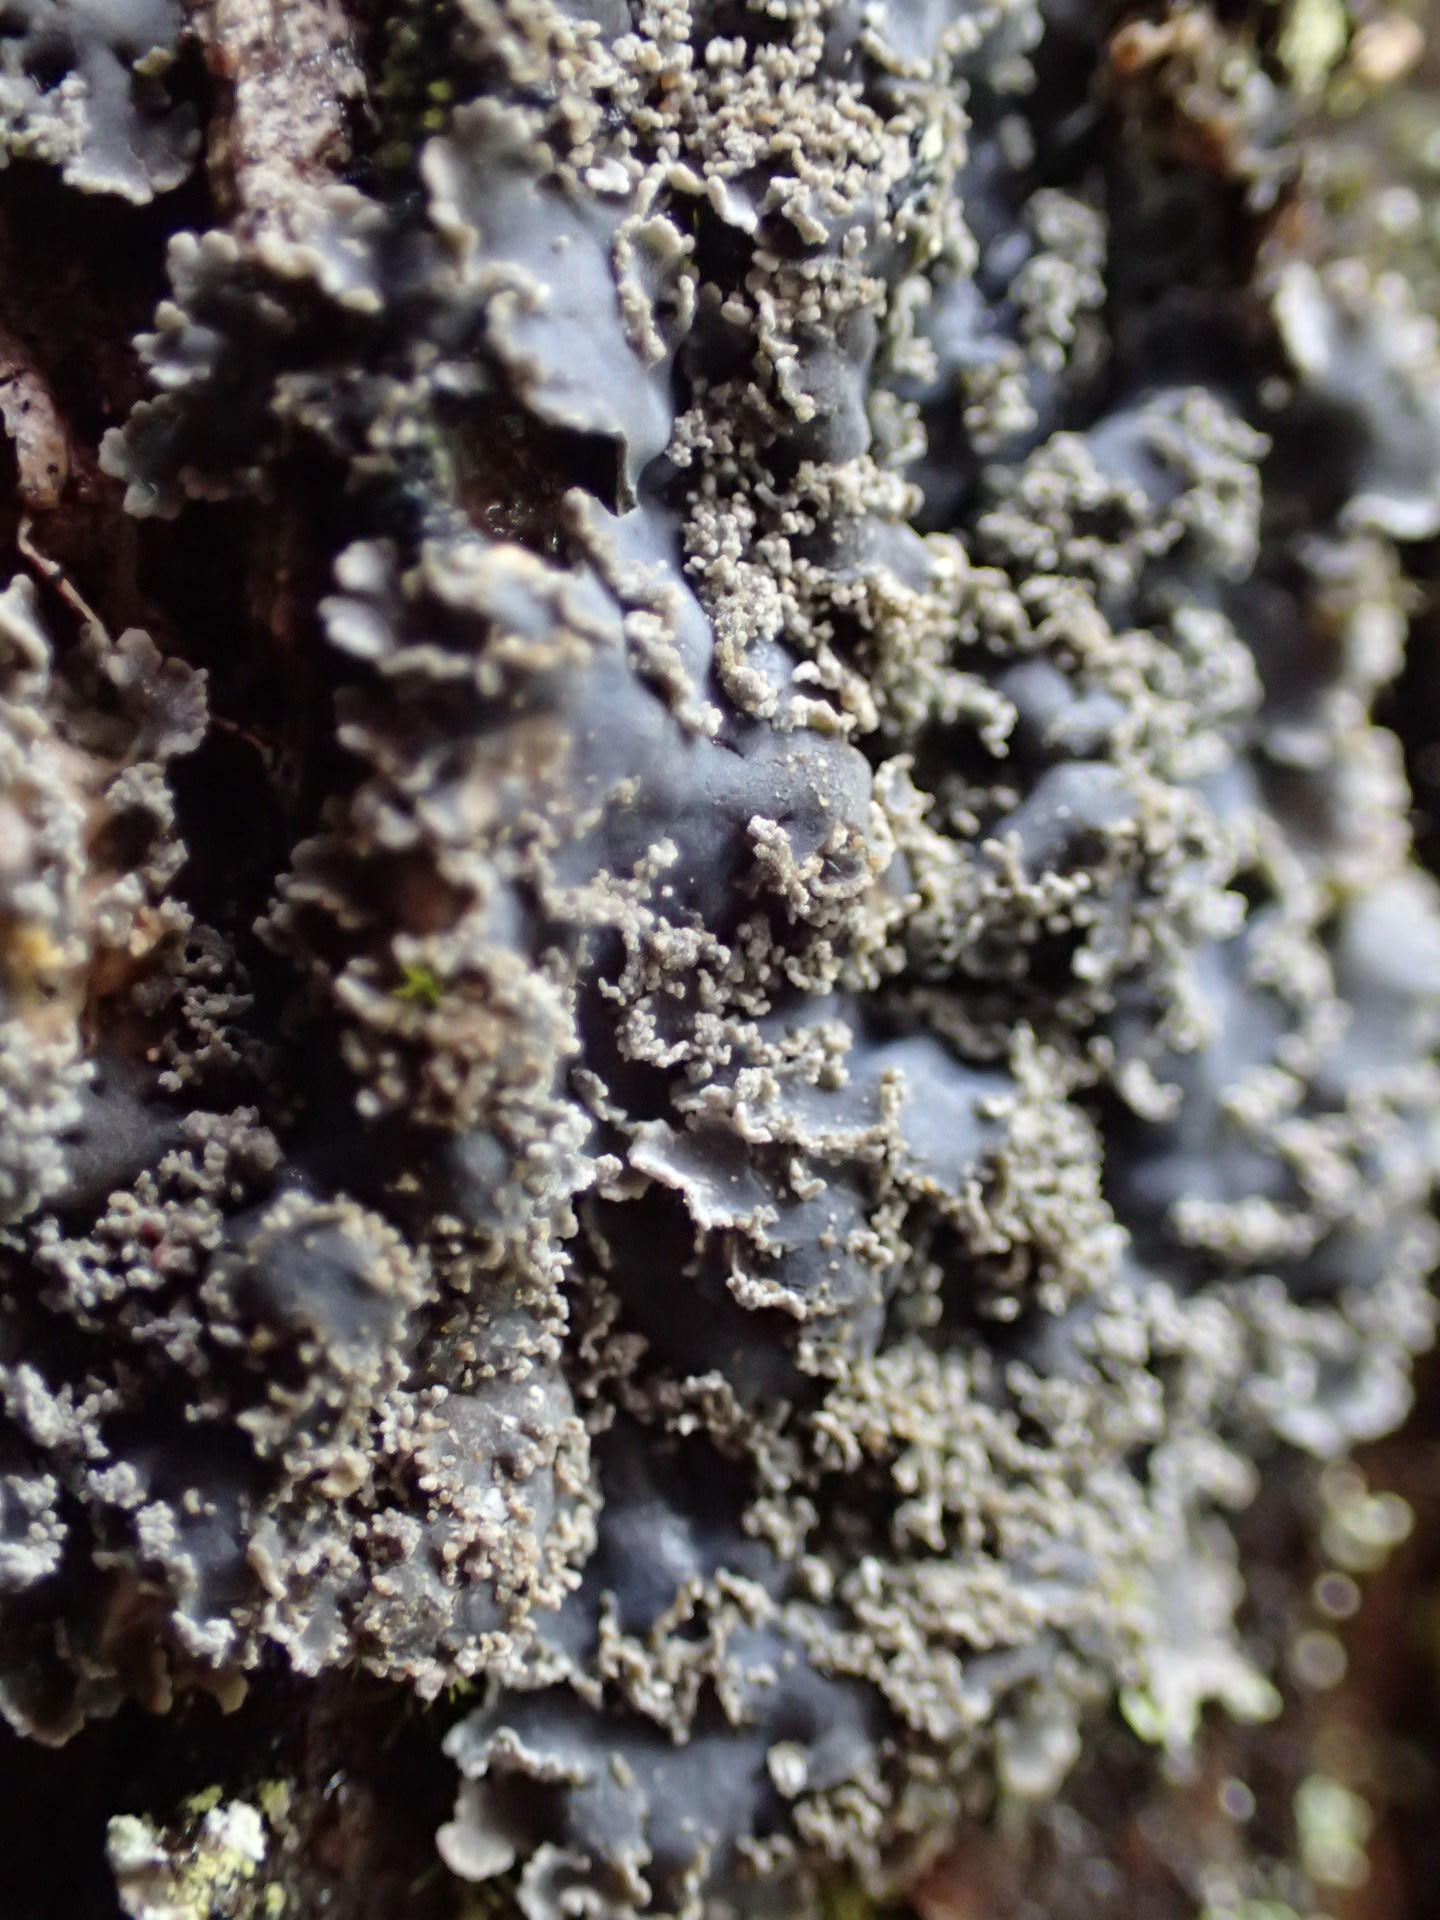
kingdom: Fungi
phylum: Ascomycota
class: Lecanoromycetes
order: Peltigerales
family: Pannariaceae
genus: Pannaria
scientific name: Pannaria conoplea
